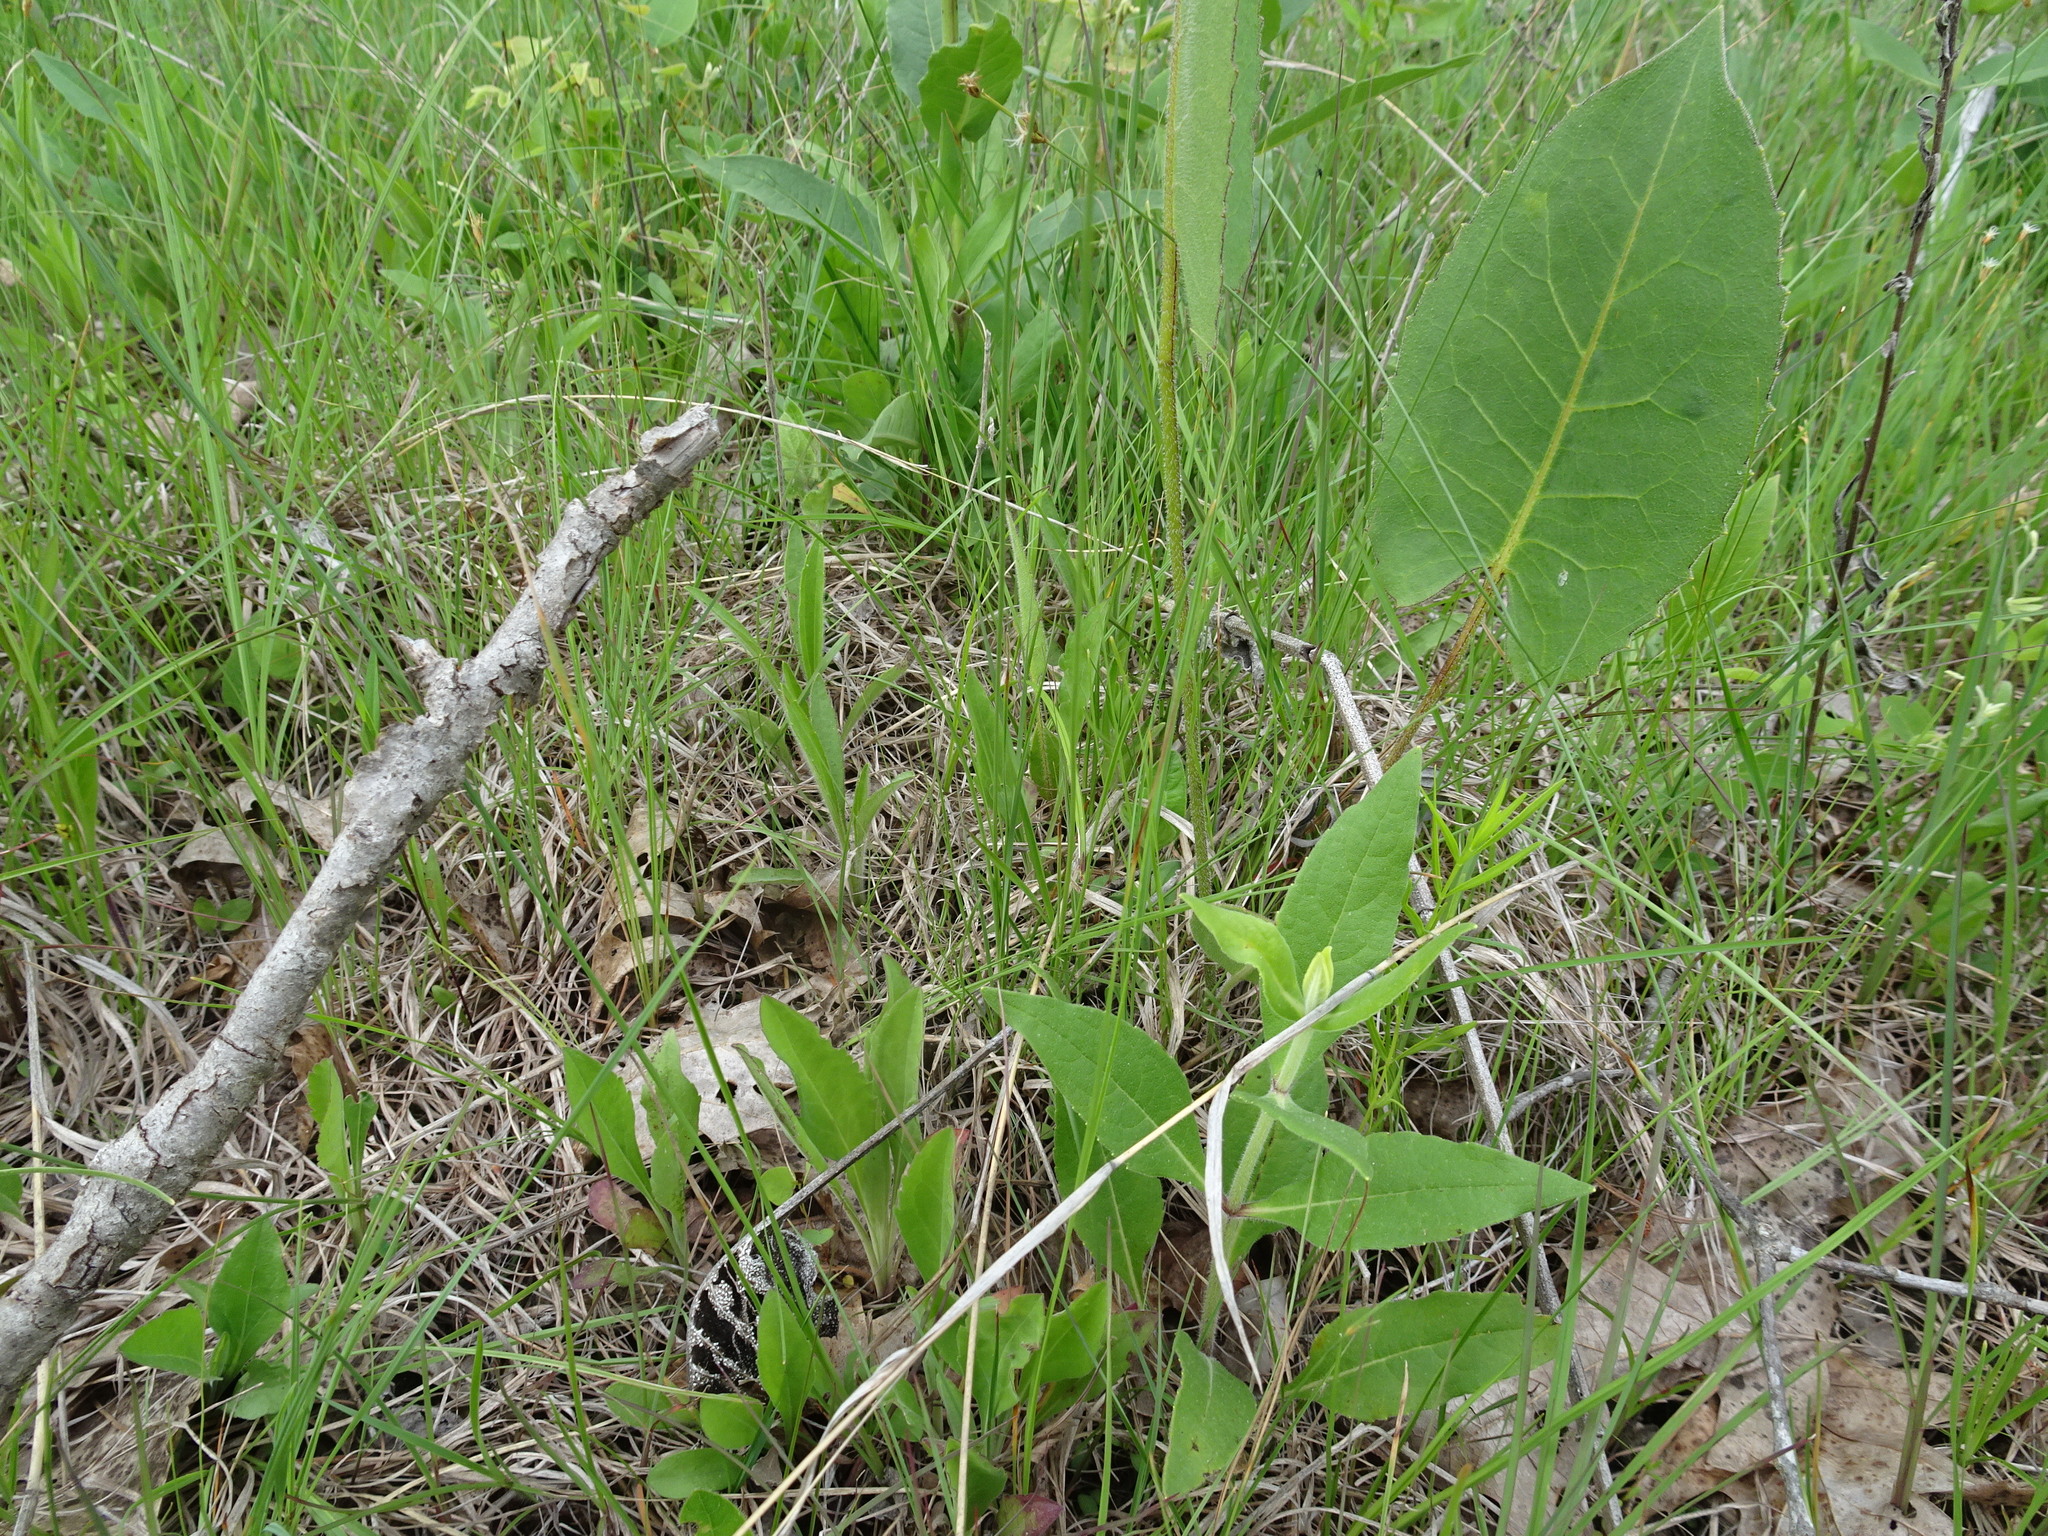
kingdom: Plantae
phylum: Tracheophyta
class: Magnoliopsida
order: Asterales
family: Asteraceae
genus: Silphium
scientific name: Silphium terebinthinaceum
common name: Basal-leaf rosinweed
